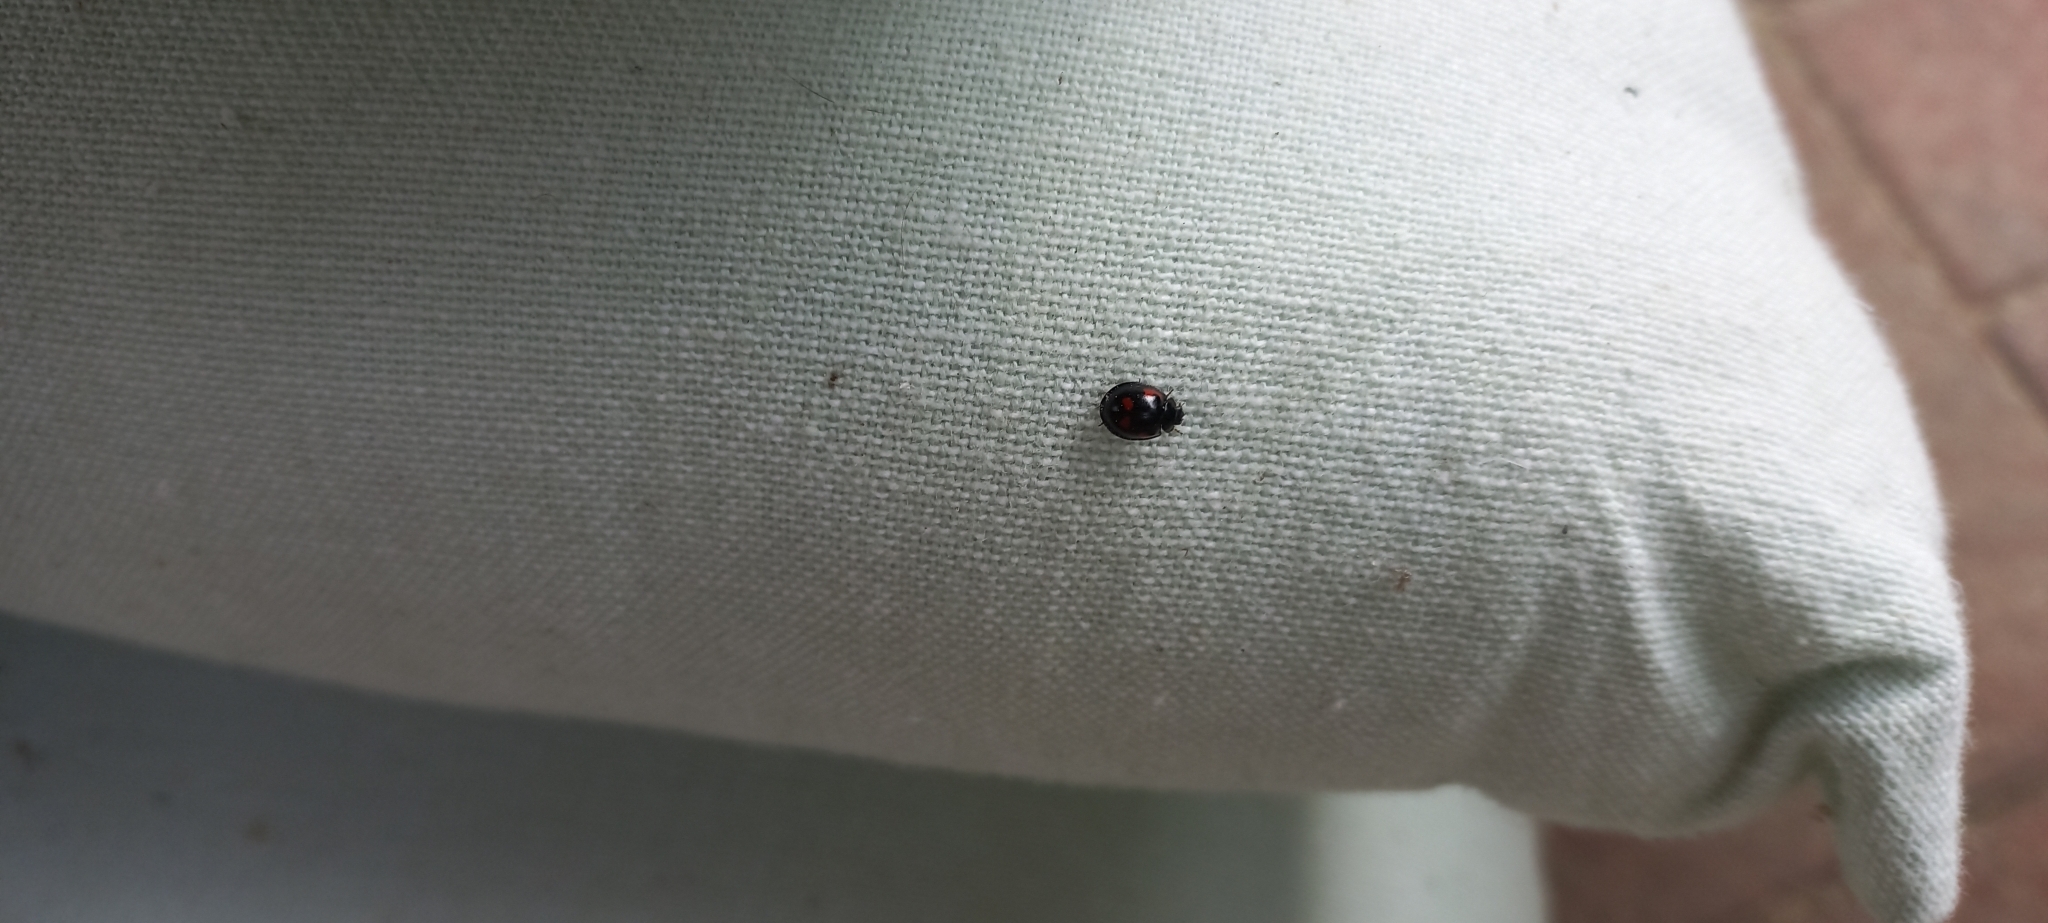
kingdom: Animalia
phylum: Arthropoda
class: Insecta
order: Coleoptera
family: Coccinellidae
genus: Brumus
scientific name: Brumus quadripustulatus
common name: Ladybird beetle
